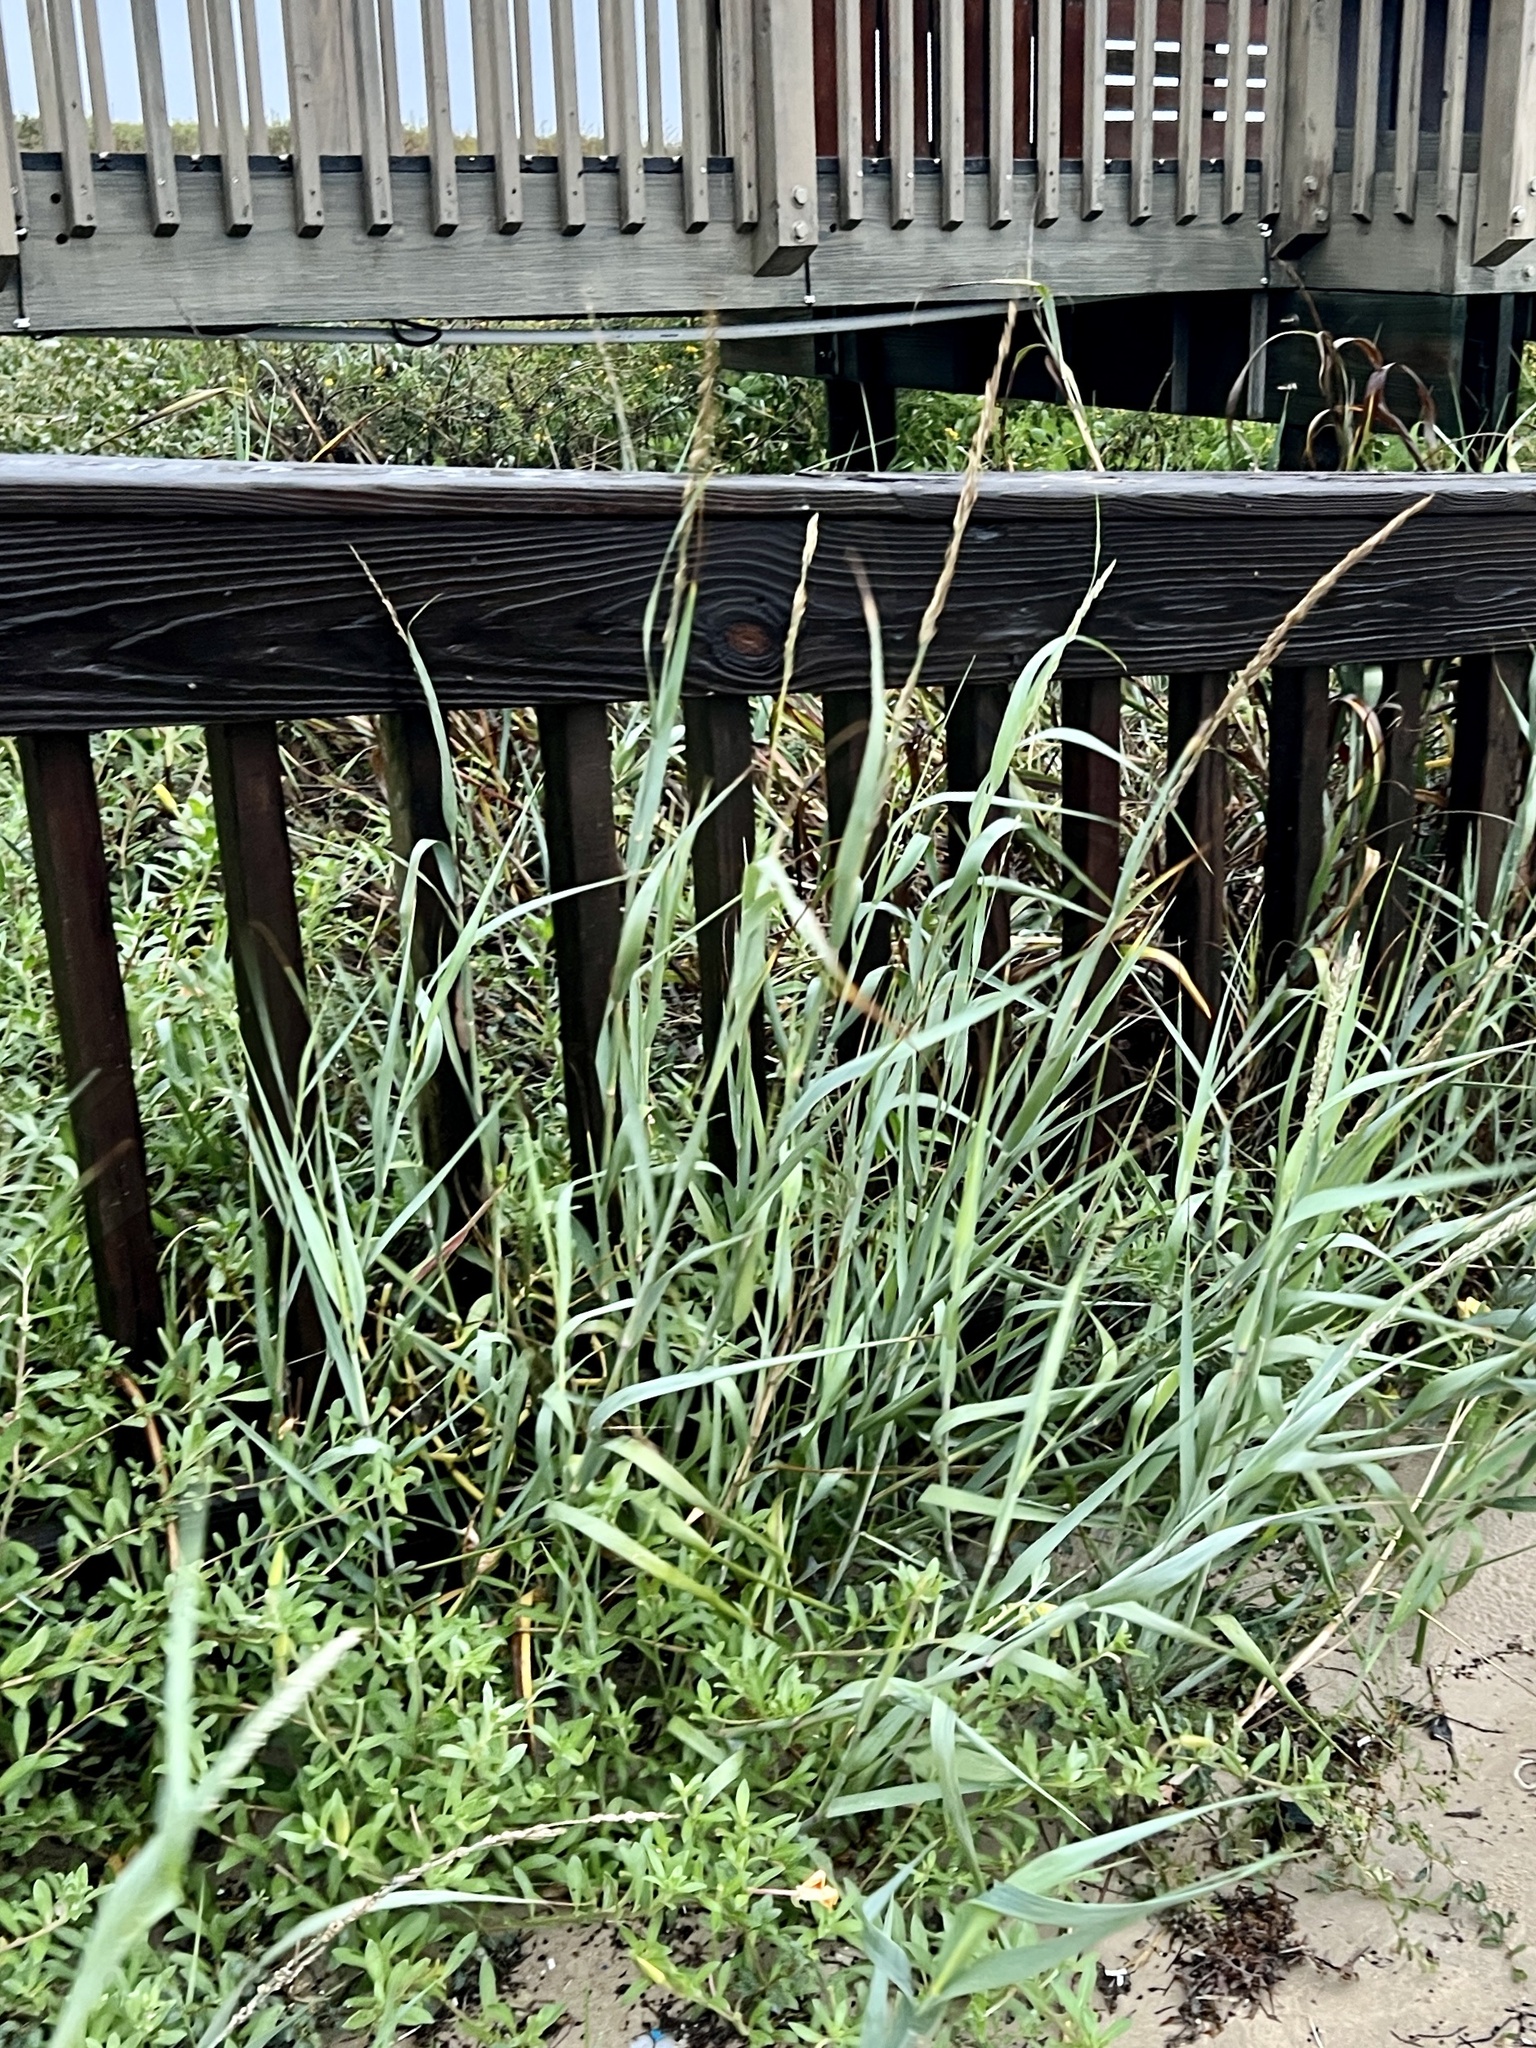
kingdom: Plantae
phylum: Tracheophyta
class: Liliopsida
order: Poales
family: Poaceae
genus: Panicum
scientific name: Panicum amarum
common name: Bitter panicum
